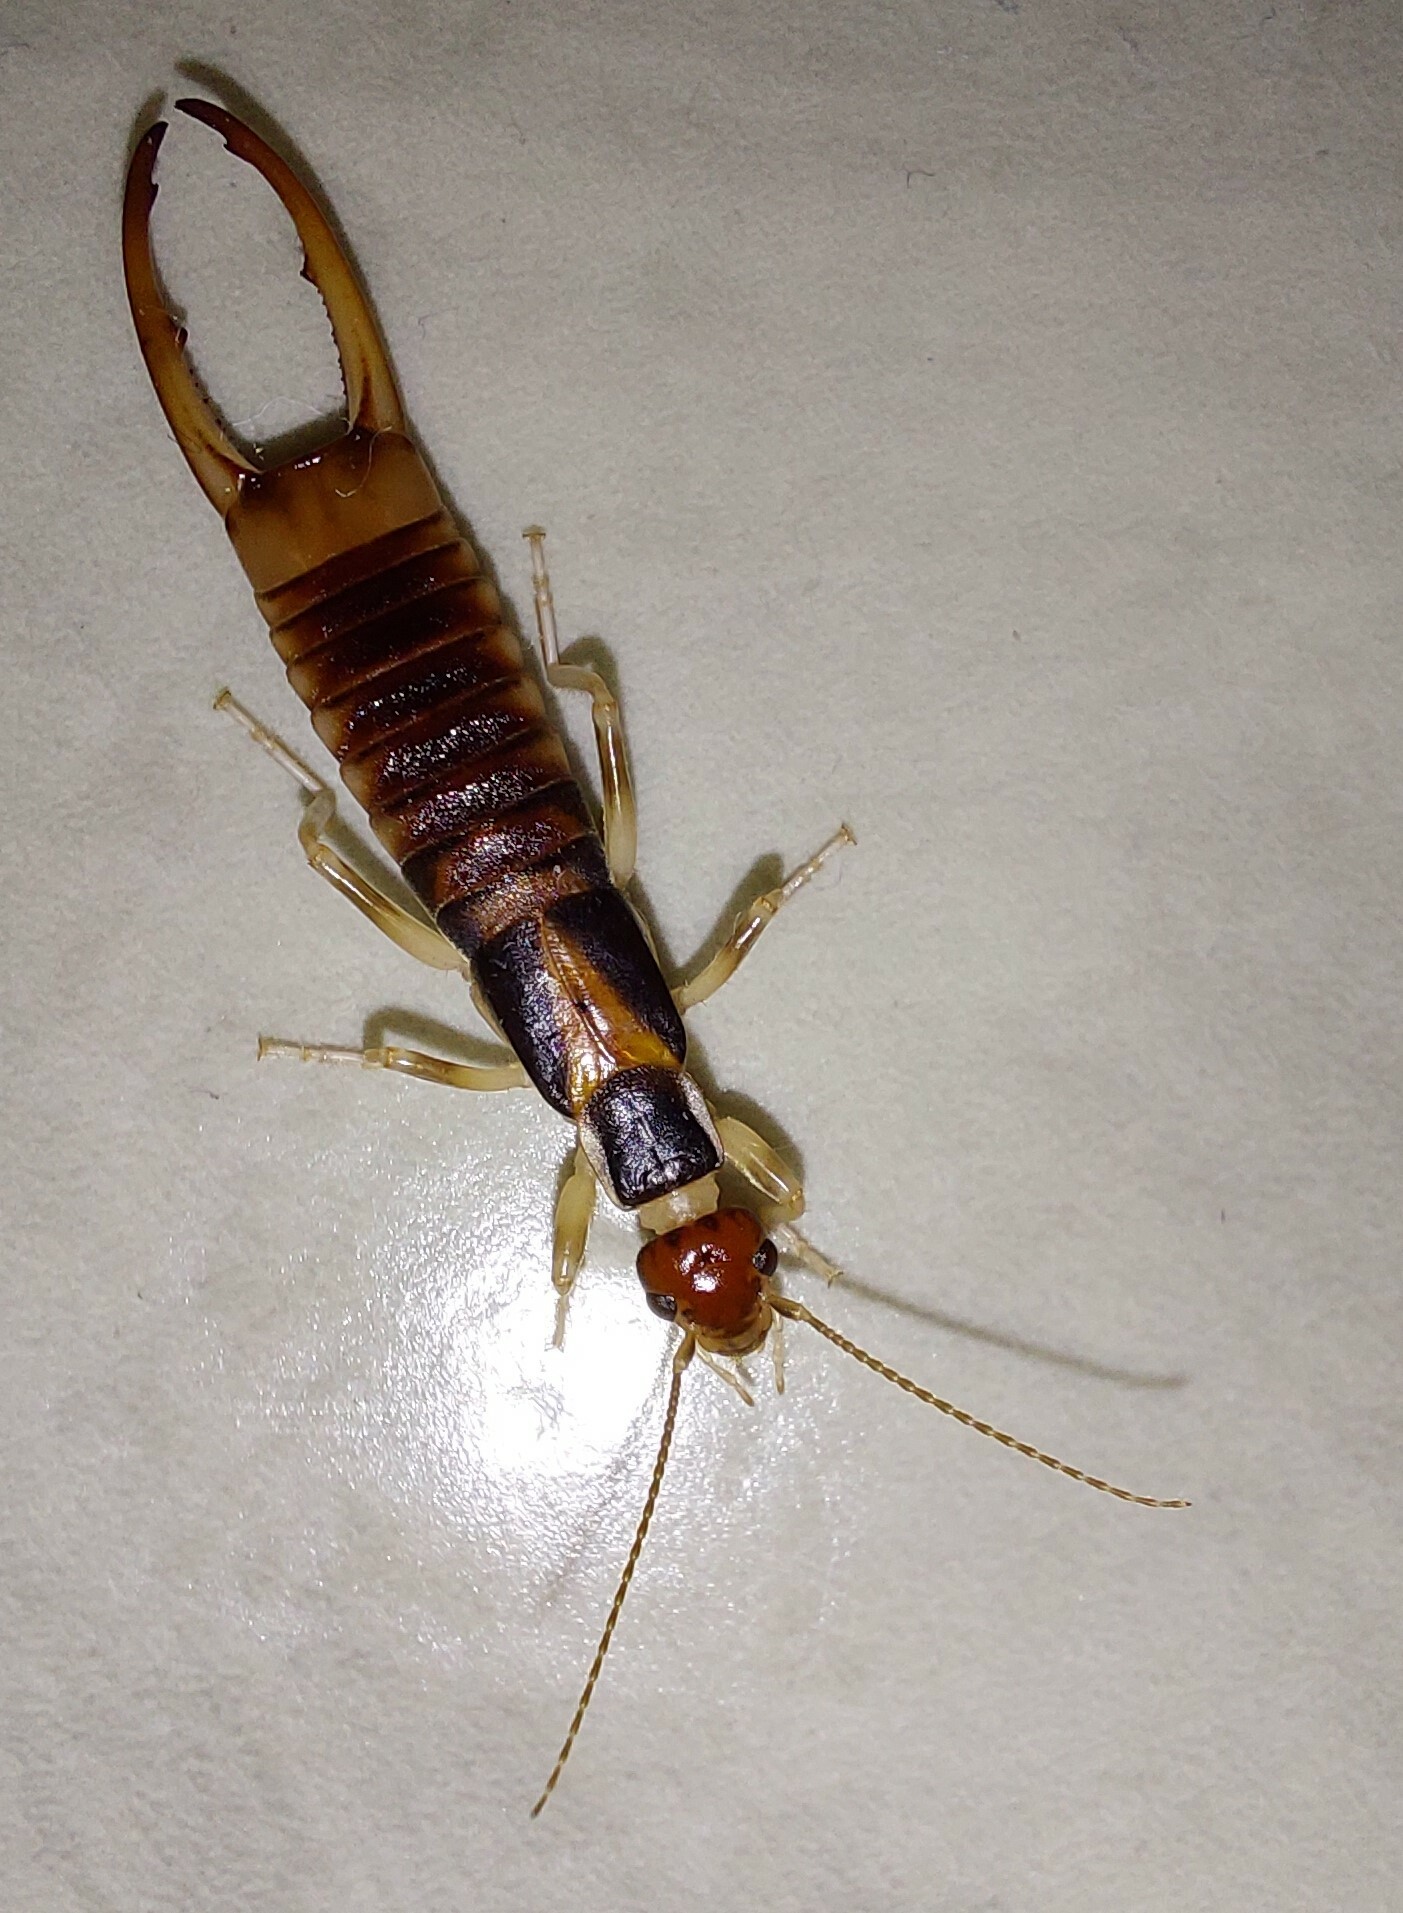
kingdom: Animalia
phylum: Arthropoda
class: Insecta
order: Dermaptera
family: Labiduridae
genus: Labidura
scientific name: Labidura riparia
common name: Striped earwig
